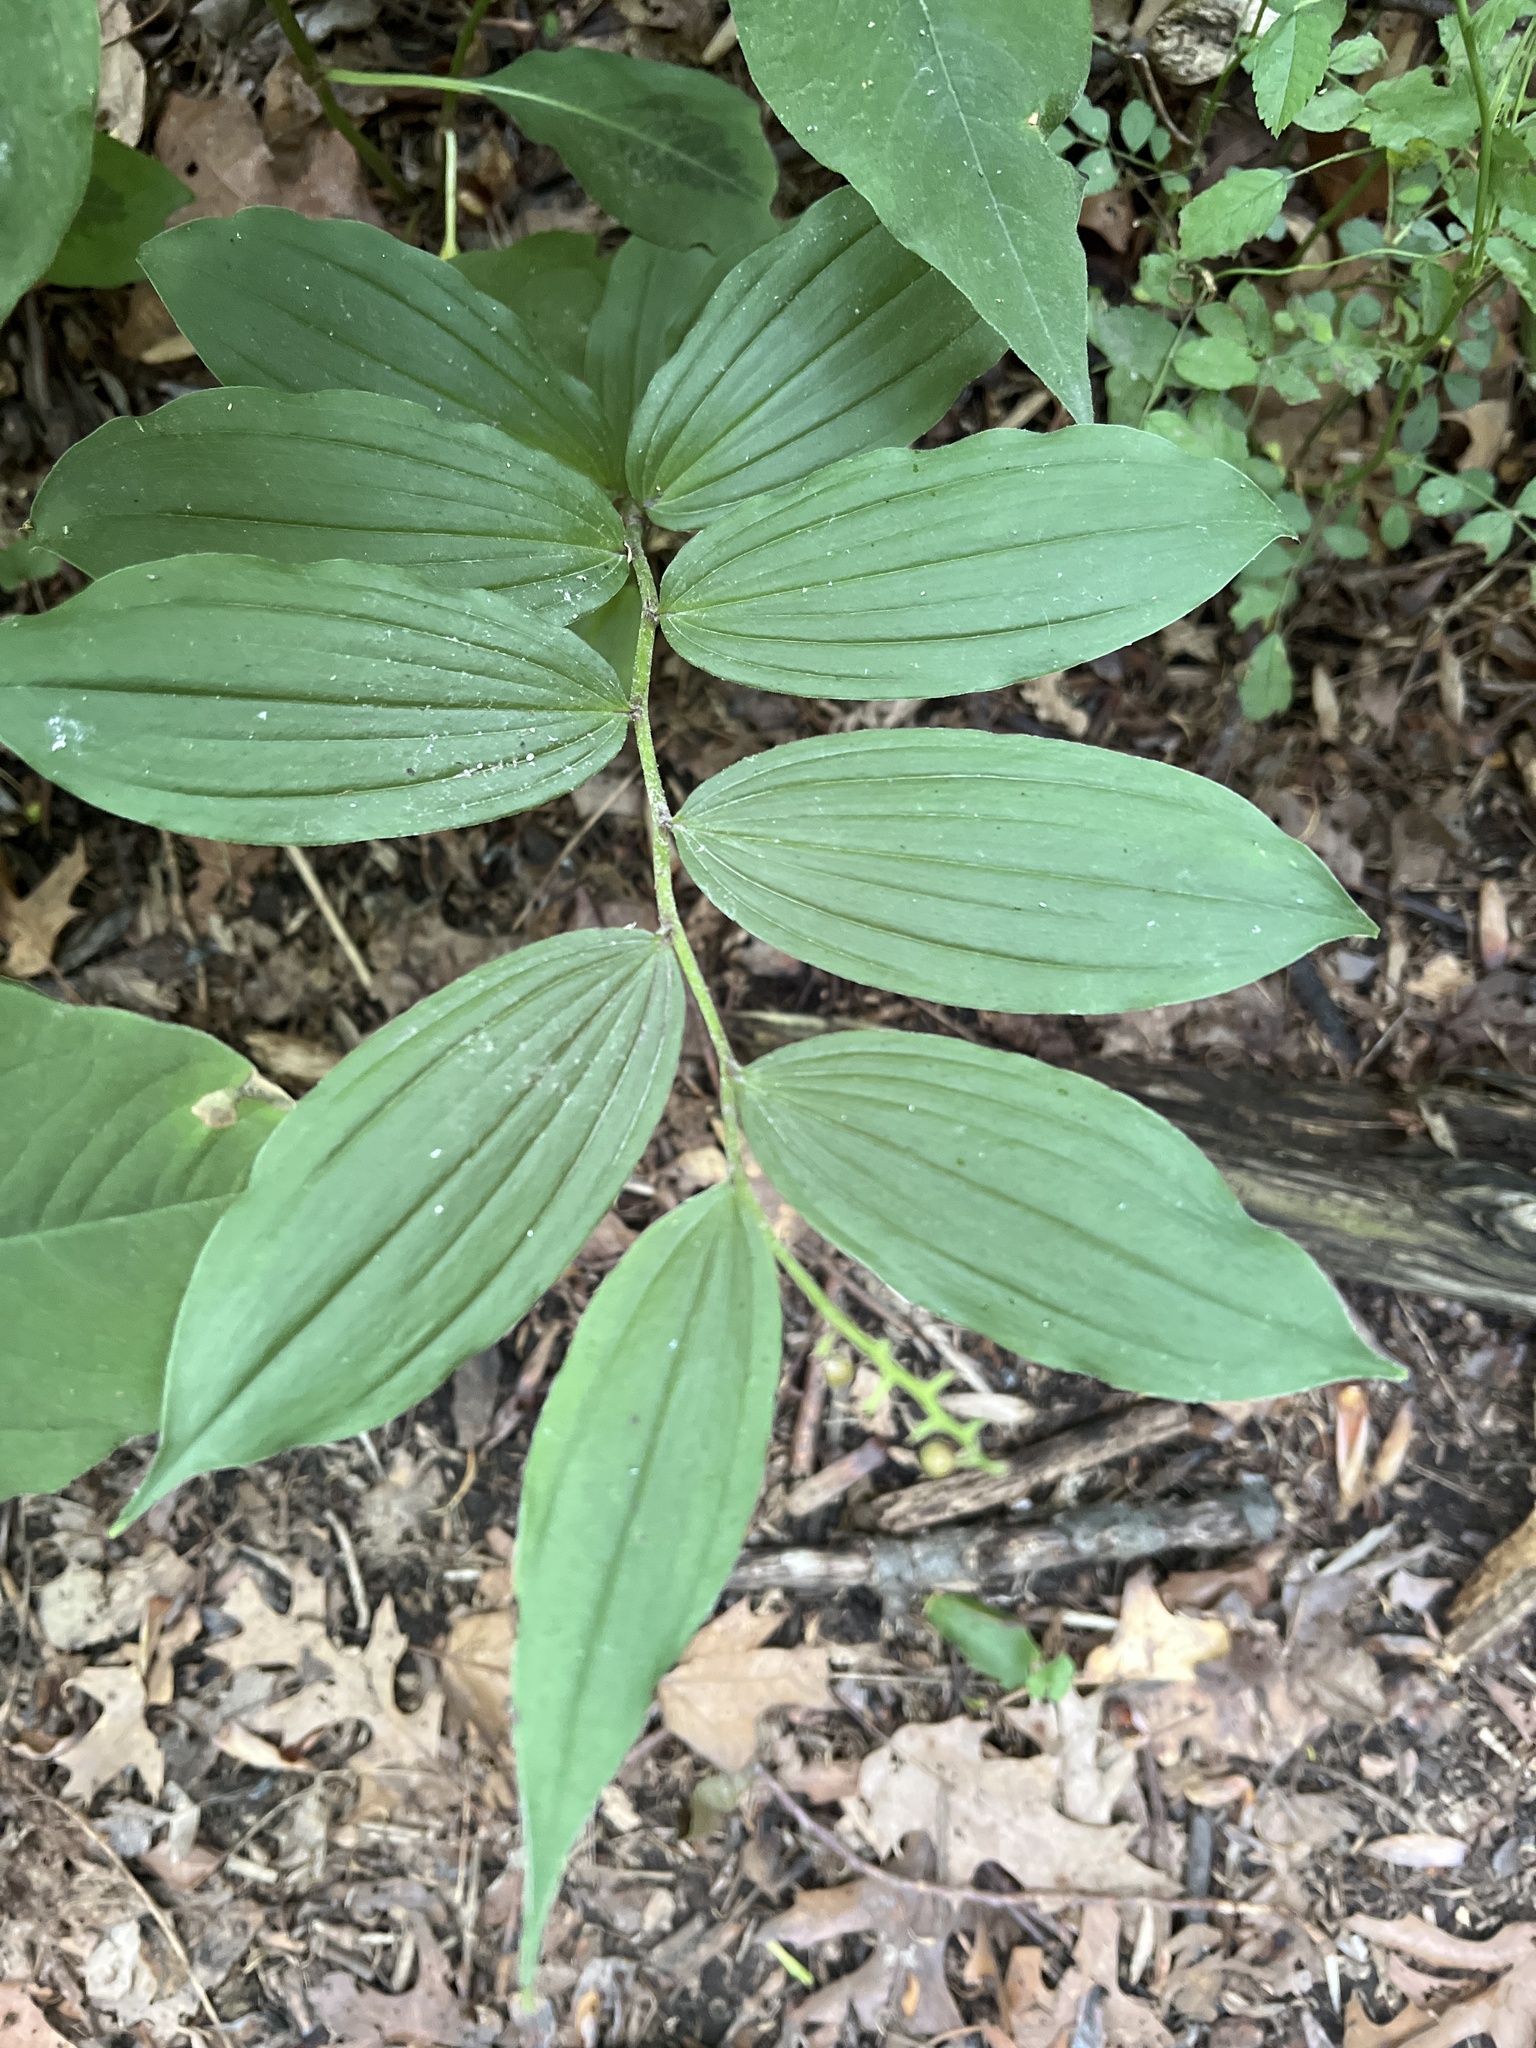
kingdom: Plantae
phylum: Tracheophyta
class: Liliopsida
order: Asparagales
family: Asparagaceae
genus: Maianthemum
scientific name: Maianthemum racemosum
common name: False spikenard
